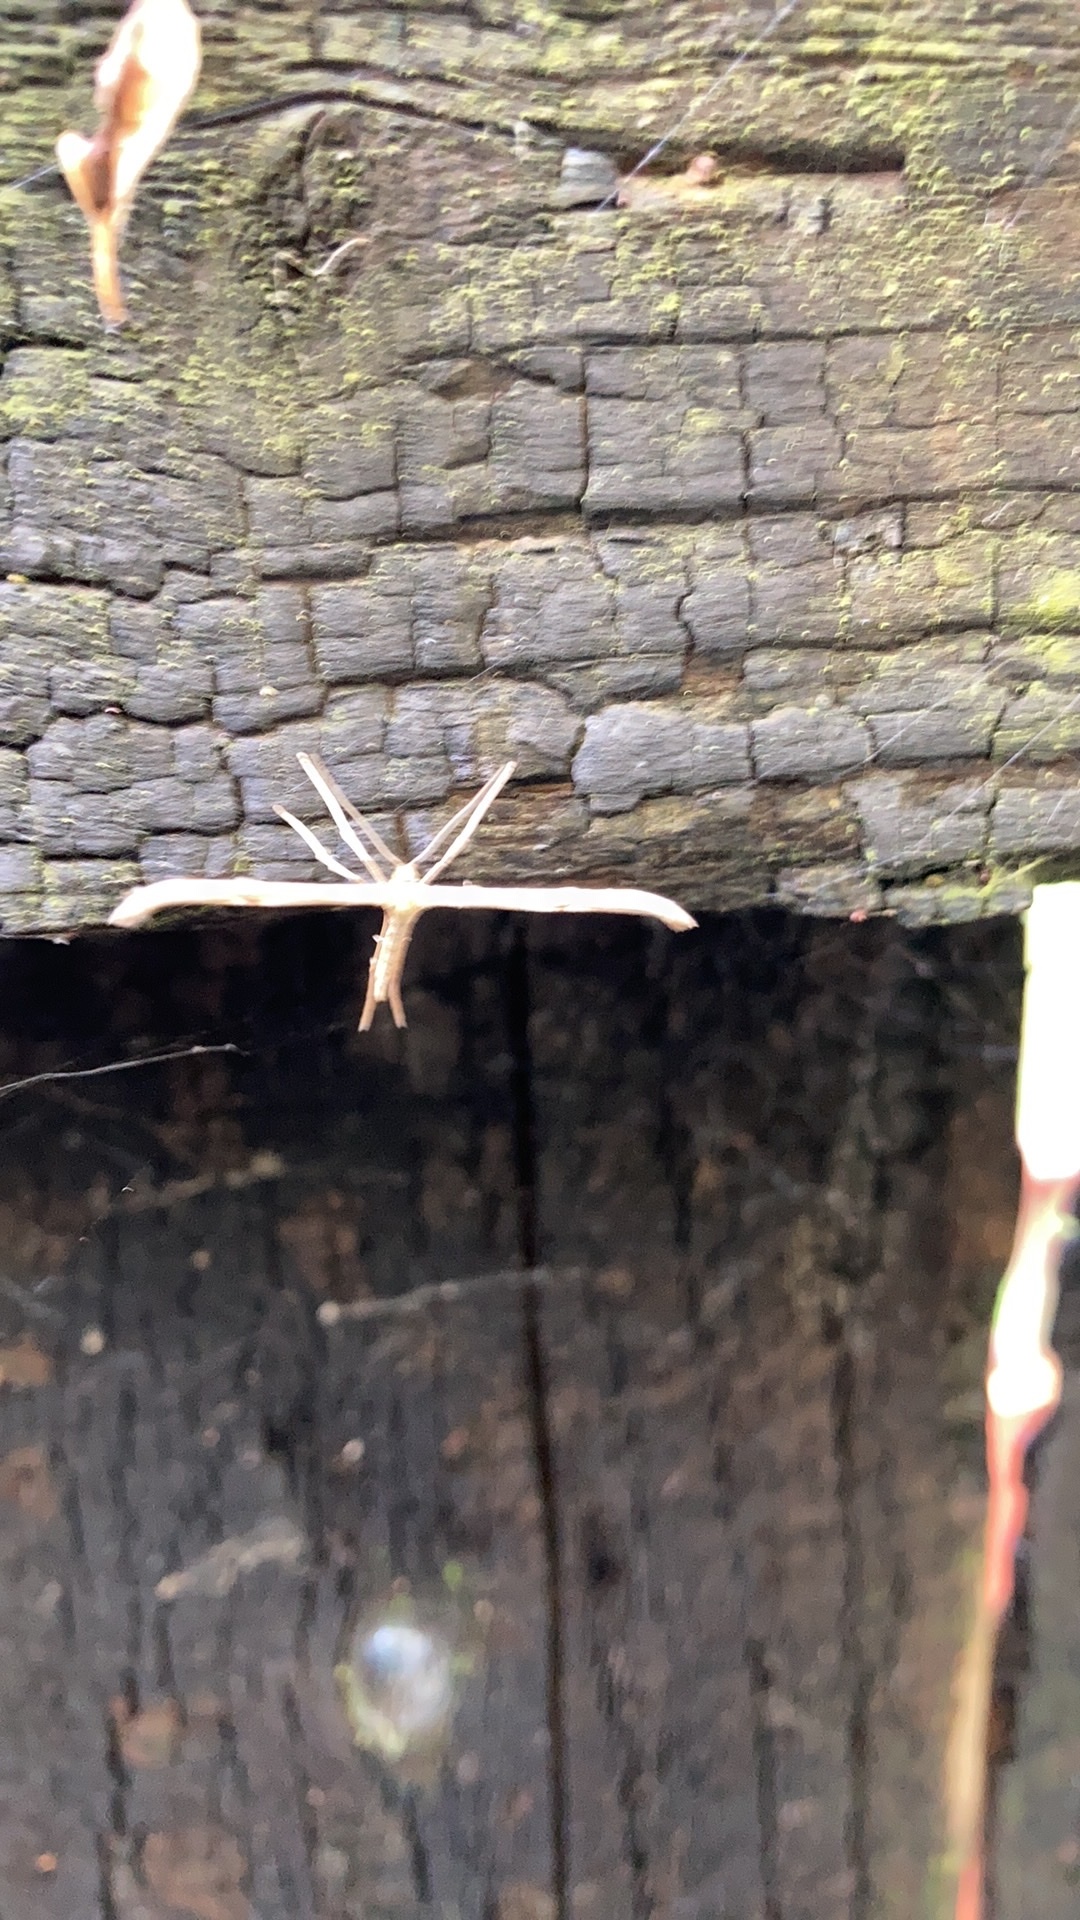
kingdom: Animalia
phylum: Arthropoda
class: Insecta
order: Lepidoptera
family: Pterophoridae
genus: Emmelina
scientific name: Emmelina monodactyla
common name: Common plume
